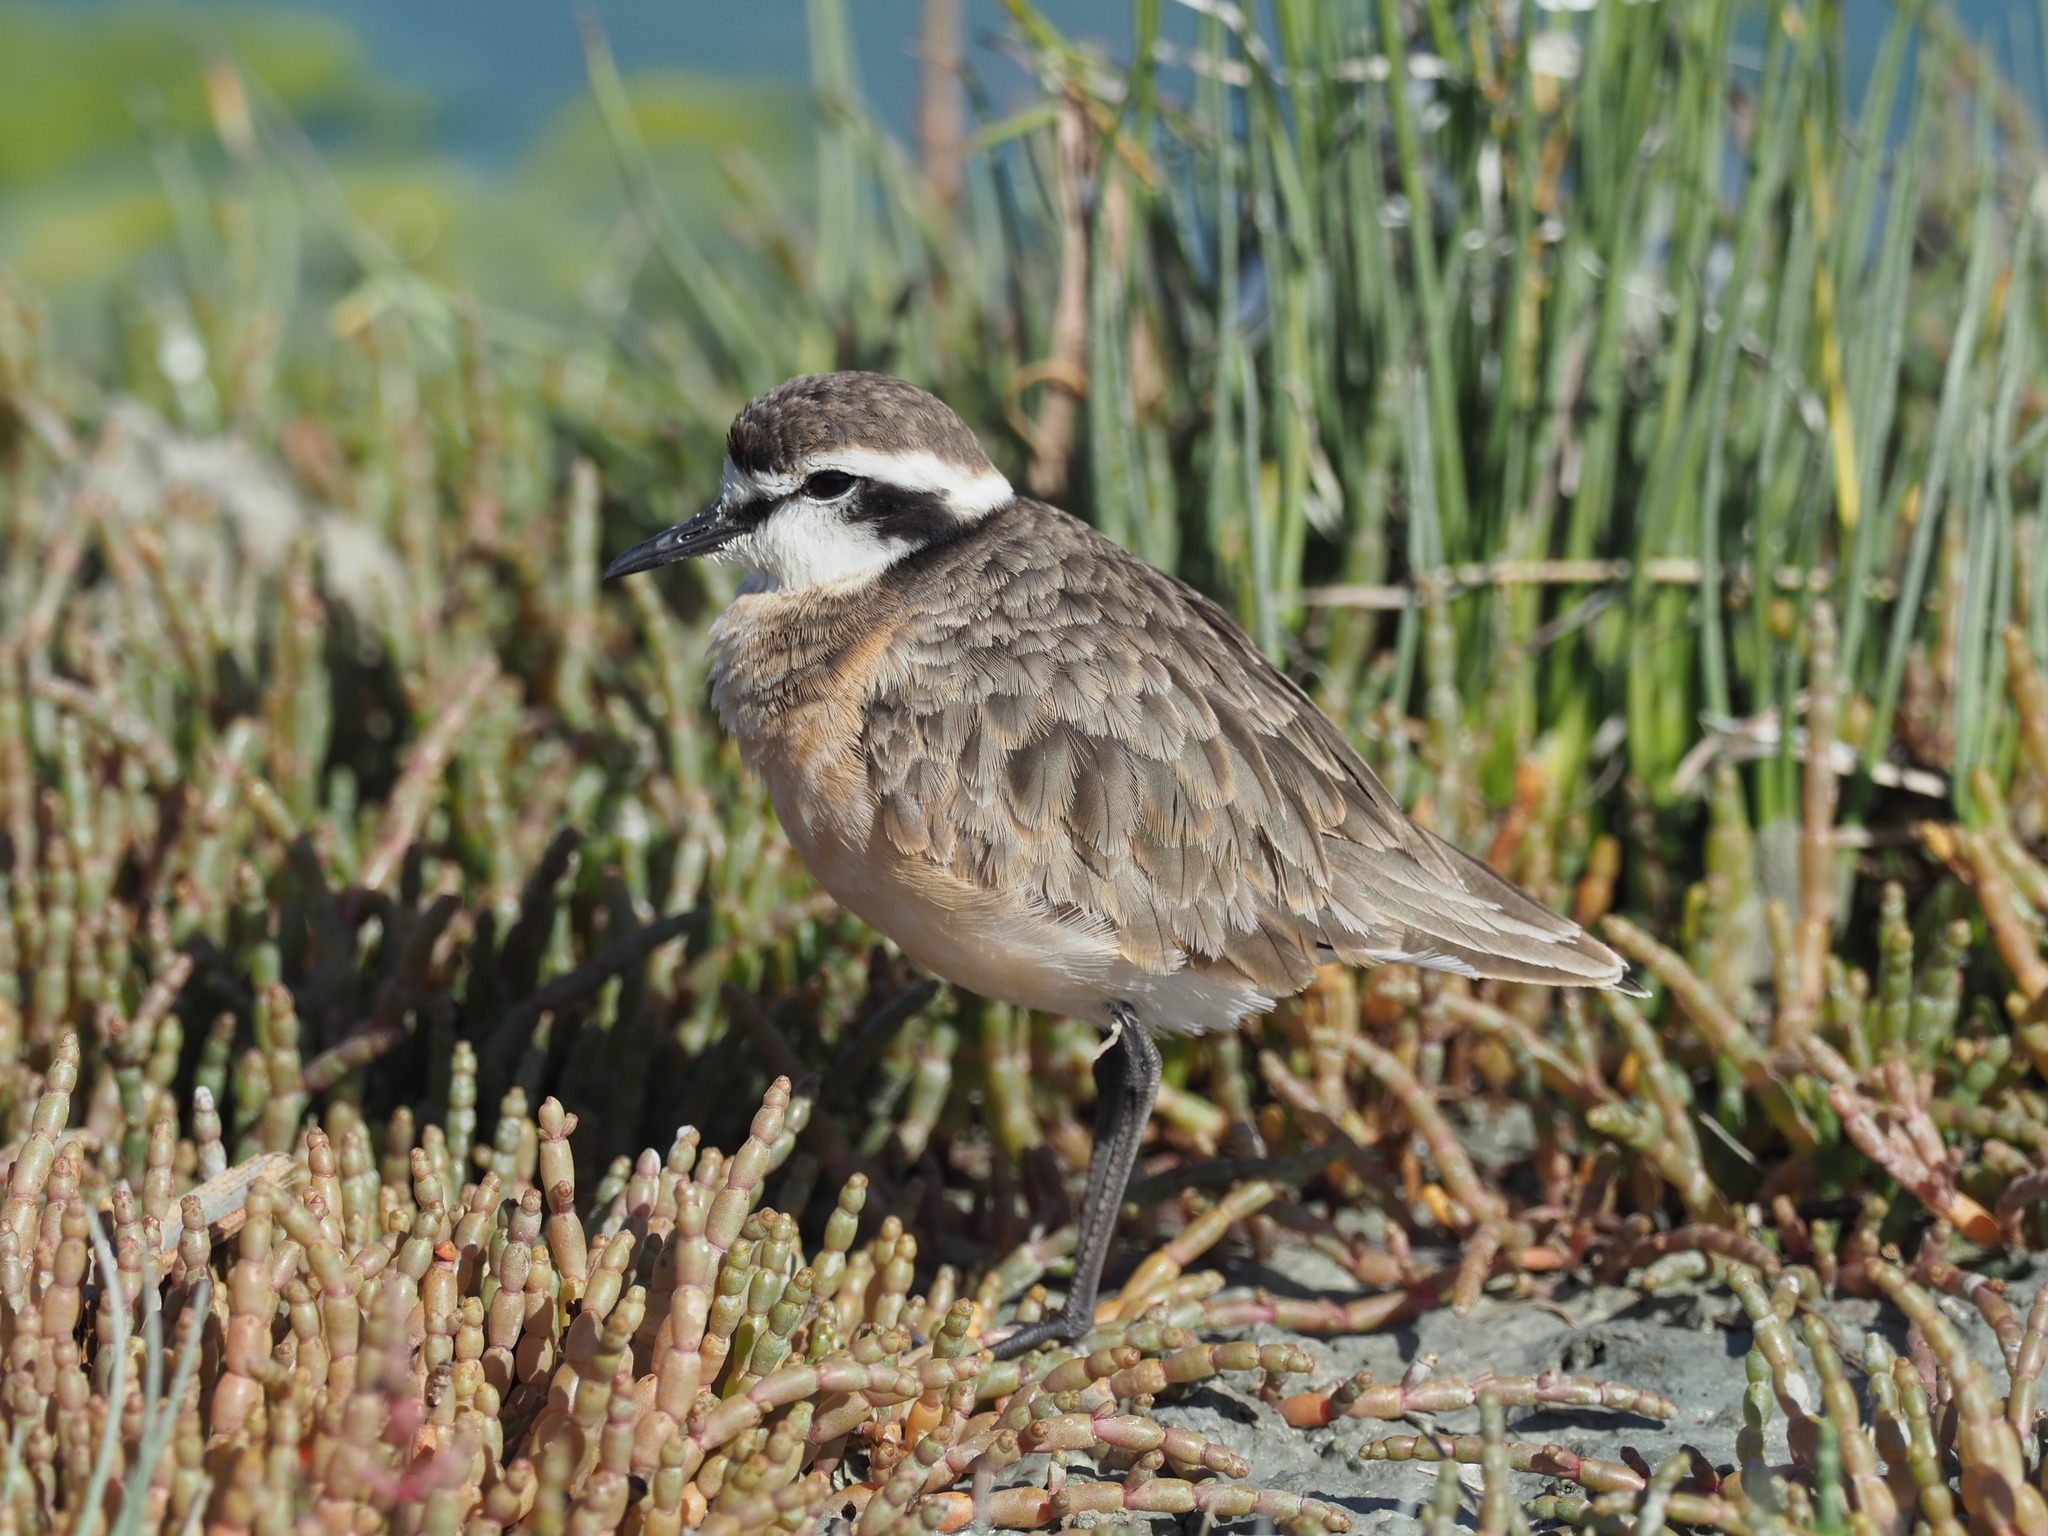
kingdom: Animalia
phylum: Chordata
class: Aves
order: Charadriiformes
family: Charadriidae
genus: Anarhynchus
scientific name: Anarhynchus
